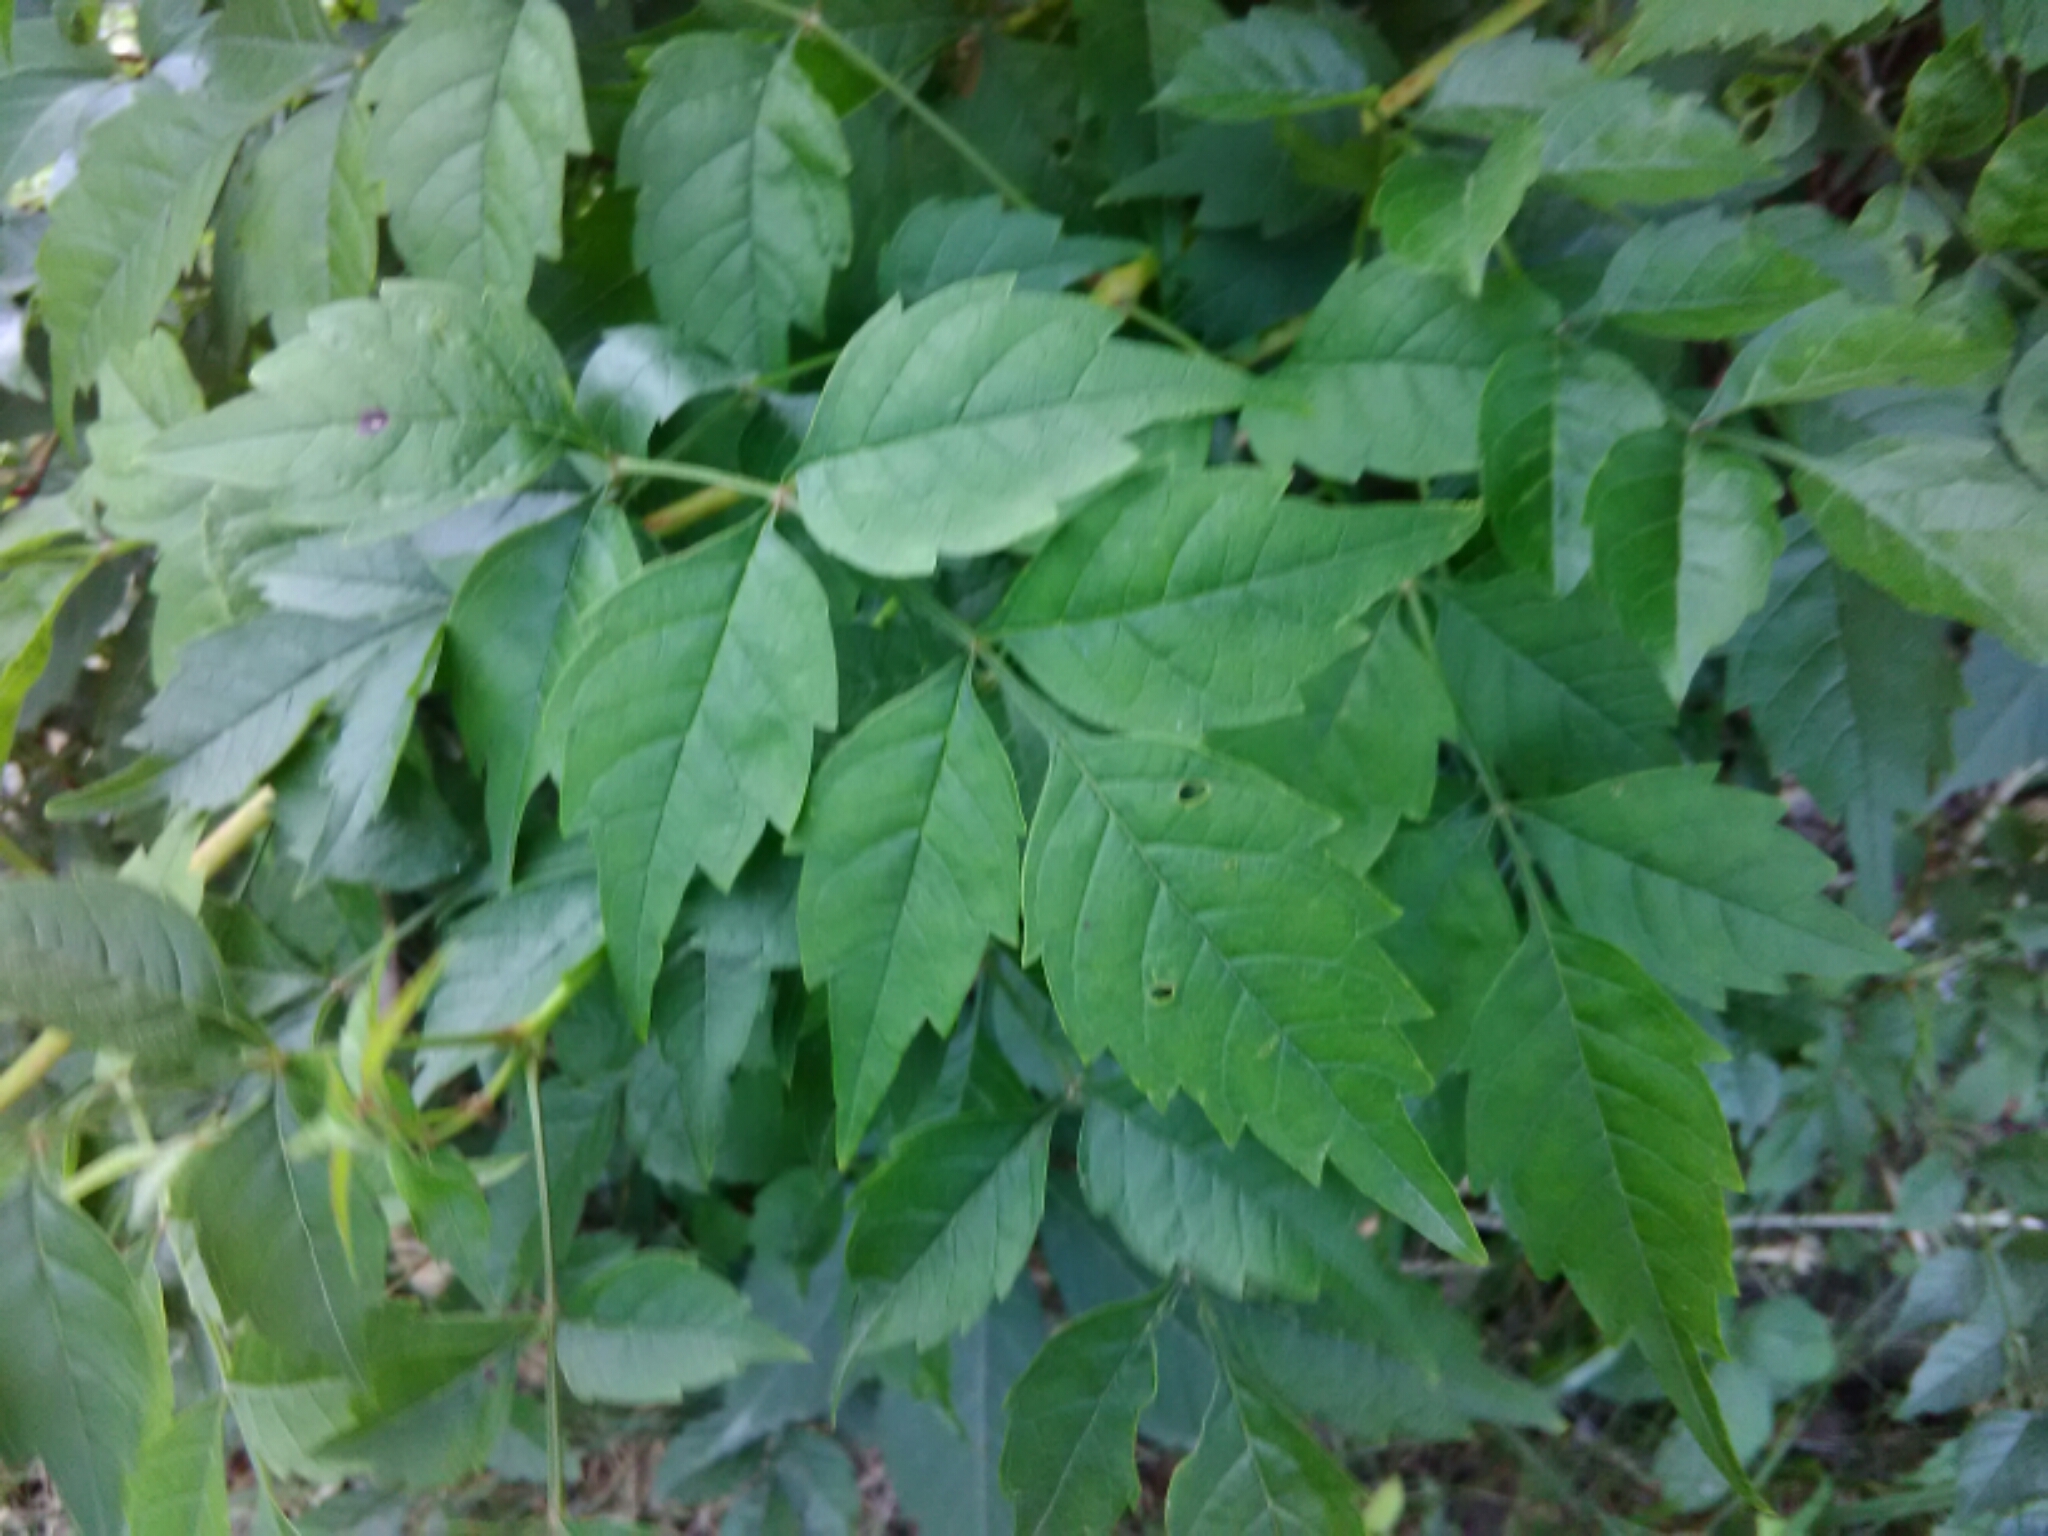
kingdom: Plantae
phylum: Tracheophyta
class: Magnoliopsida
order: Lamiales
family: Bignoniaceae
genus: Campsis
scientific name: Campsis radicans
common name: Trumpet-creeper
